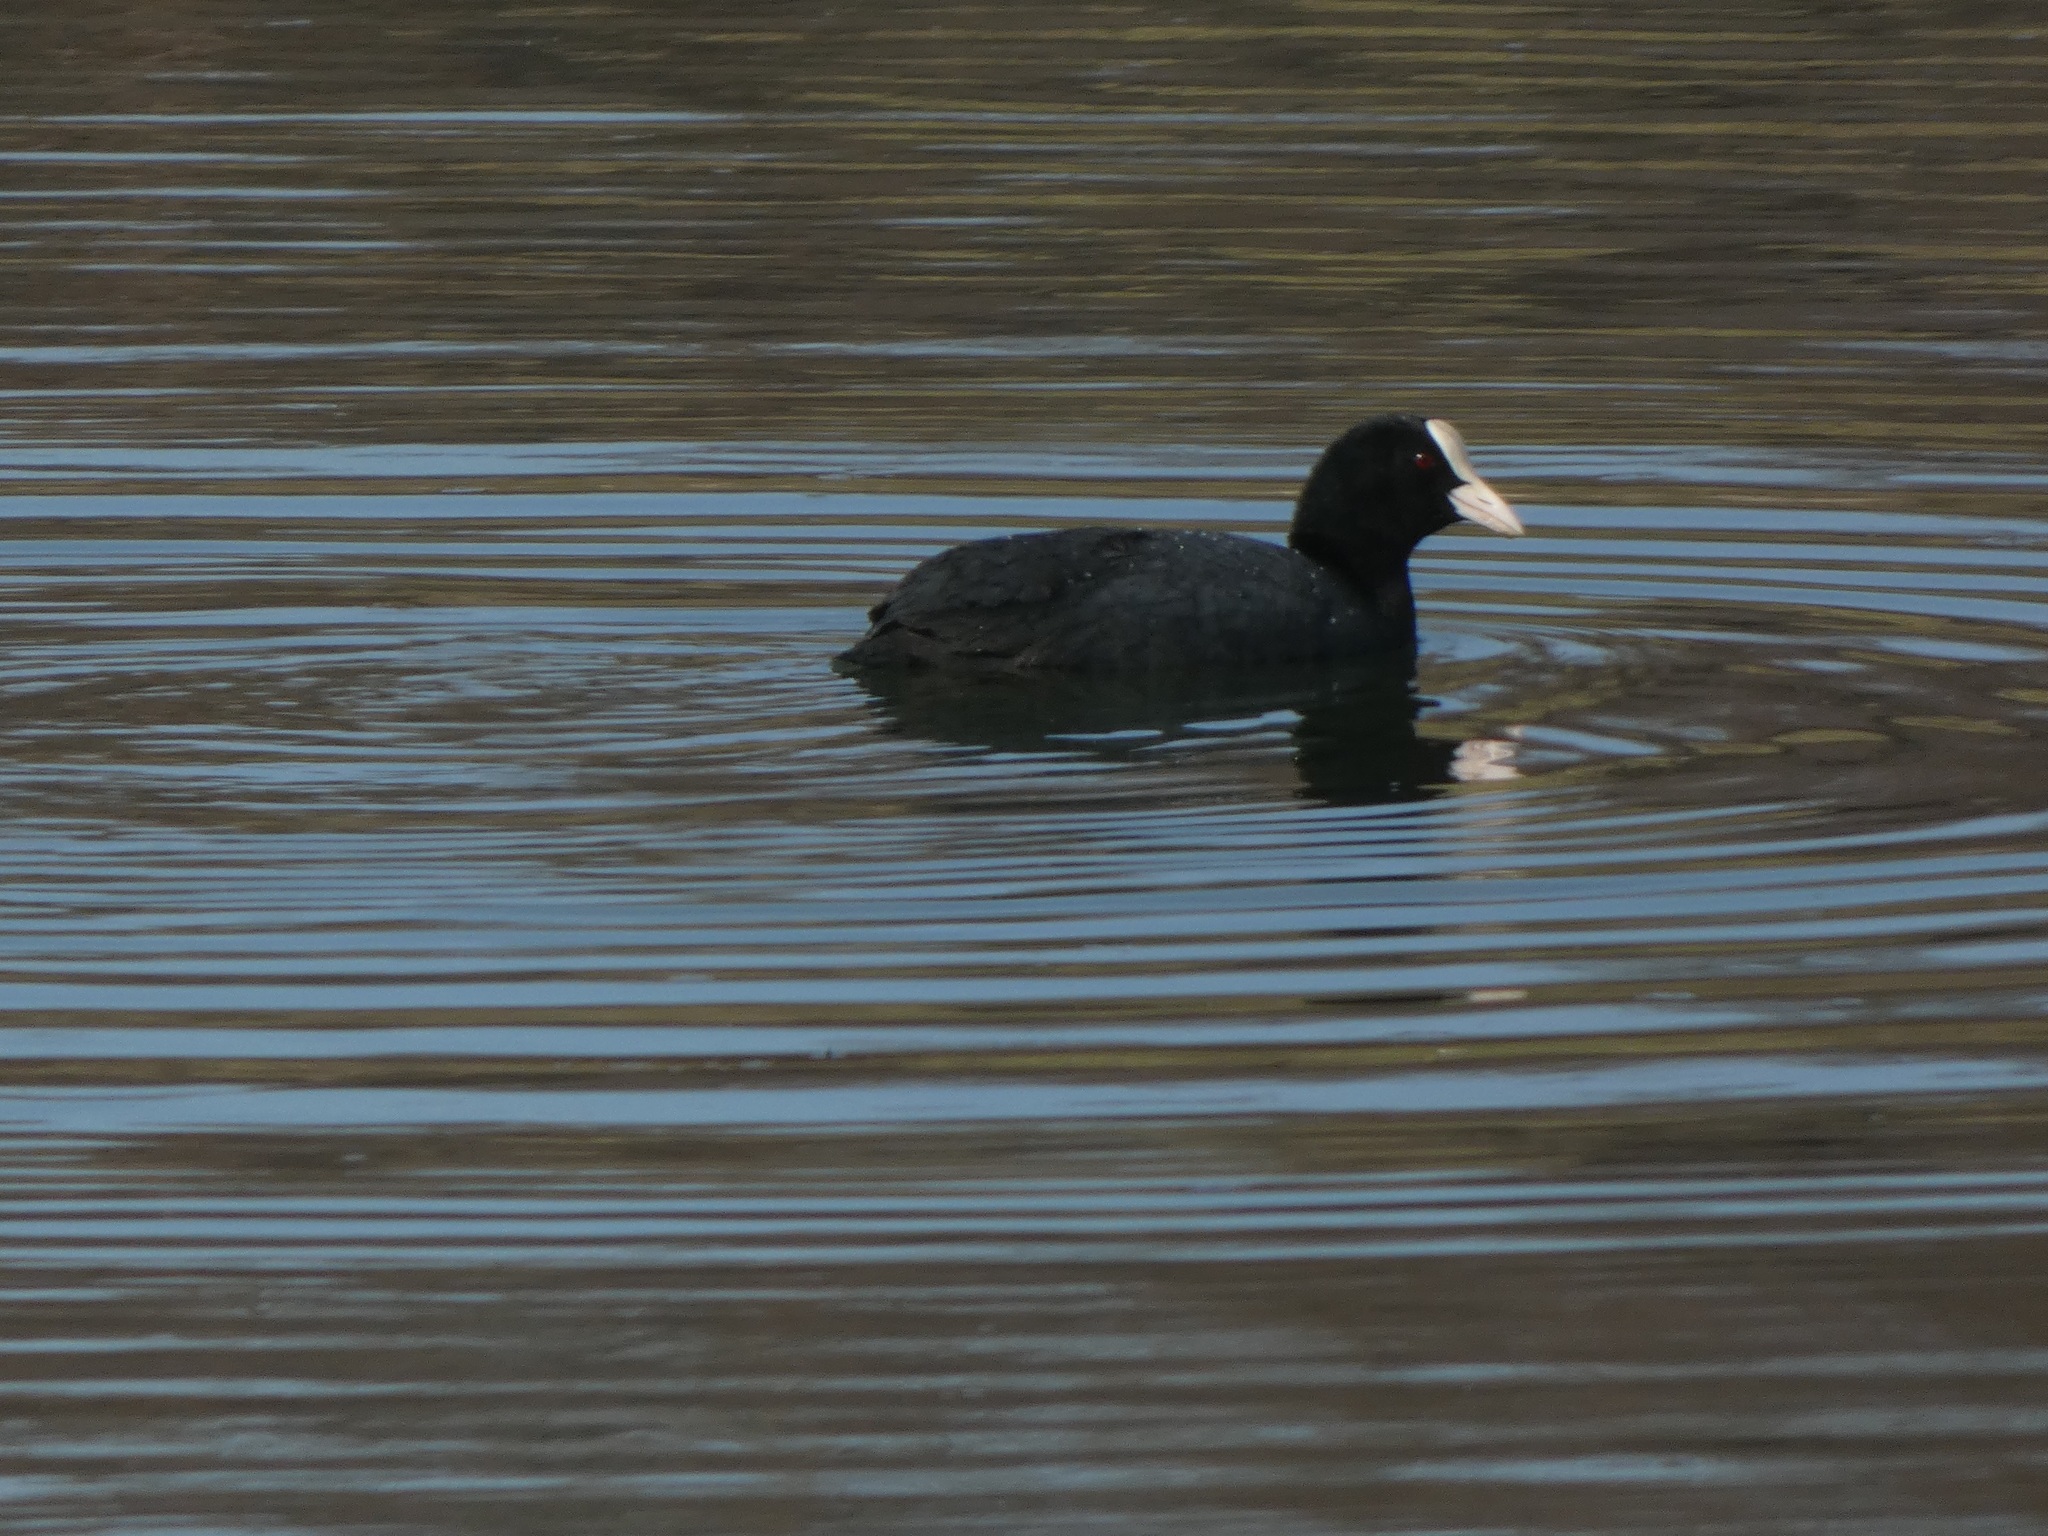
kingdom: Animalia
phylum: Chordata
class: Aves
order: Gruiformes
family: Rallidae
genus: Fulica
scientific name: Fulica atra
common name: Eurasian coot
